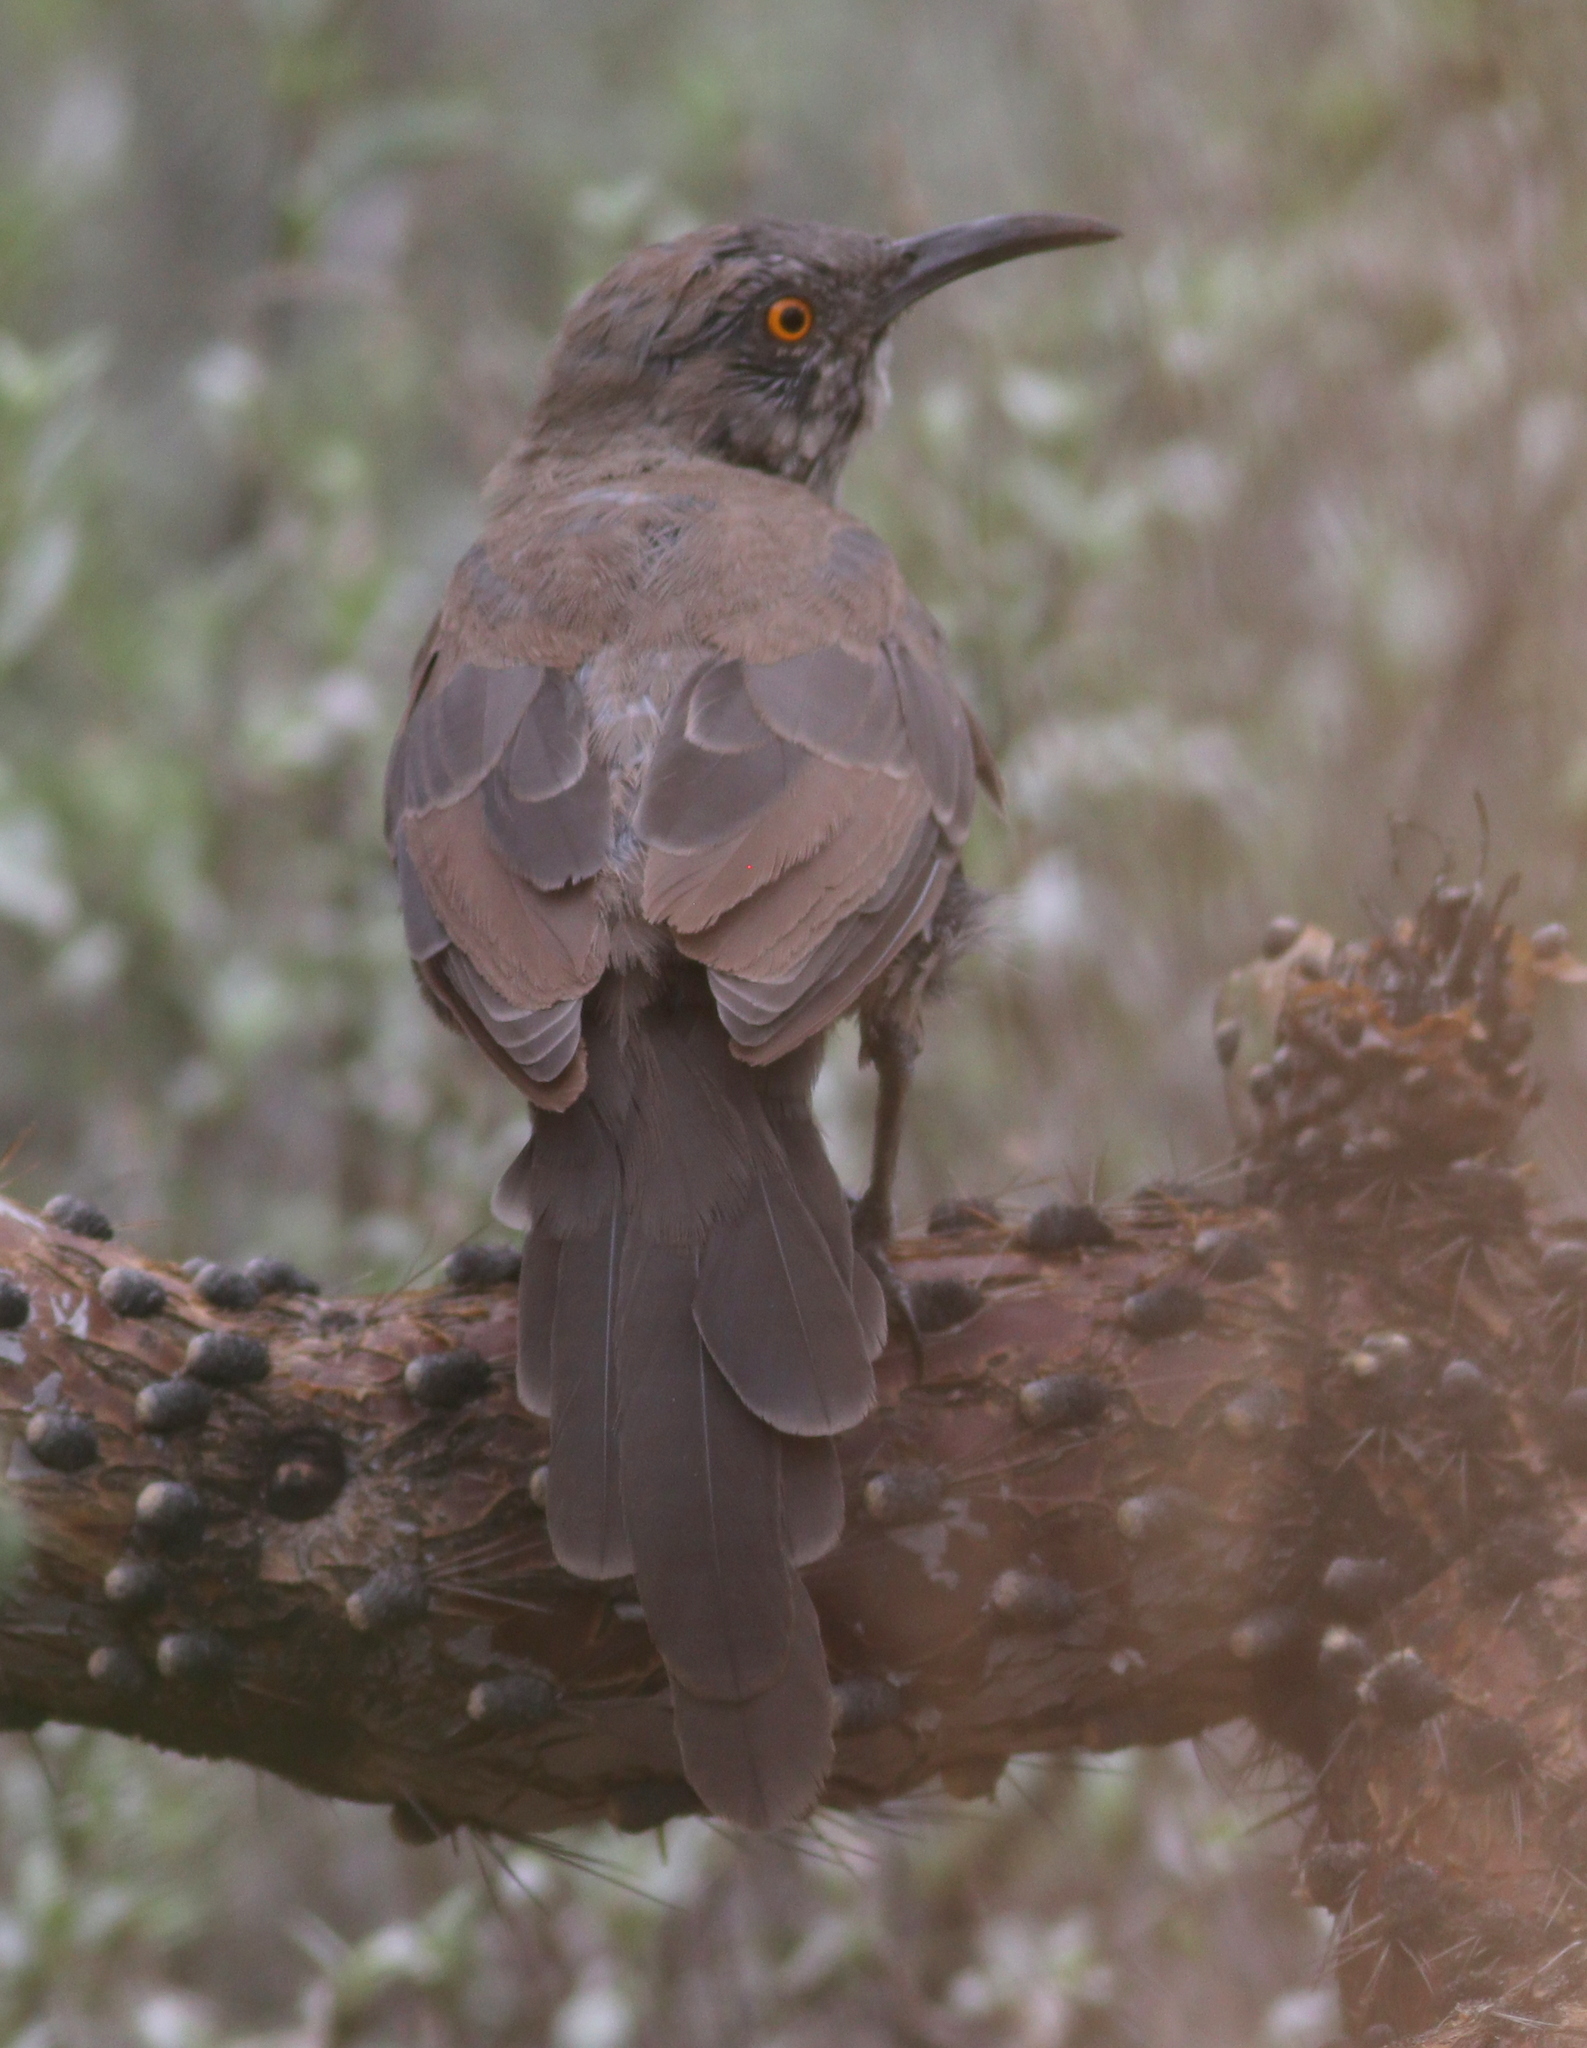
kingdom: Animalia
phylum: Chordata
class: Aves
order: Passeriformes
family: Mimidae
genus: Toxostoma
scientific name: Toxostoma curvirostre
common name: Curve-billed thrasher
